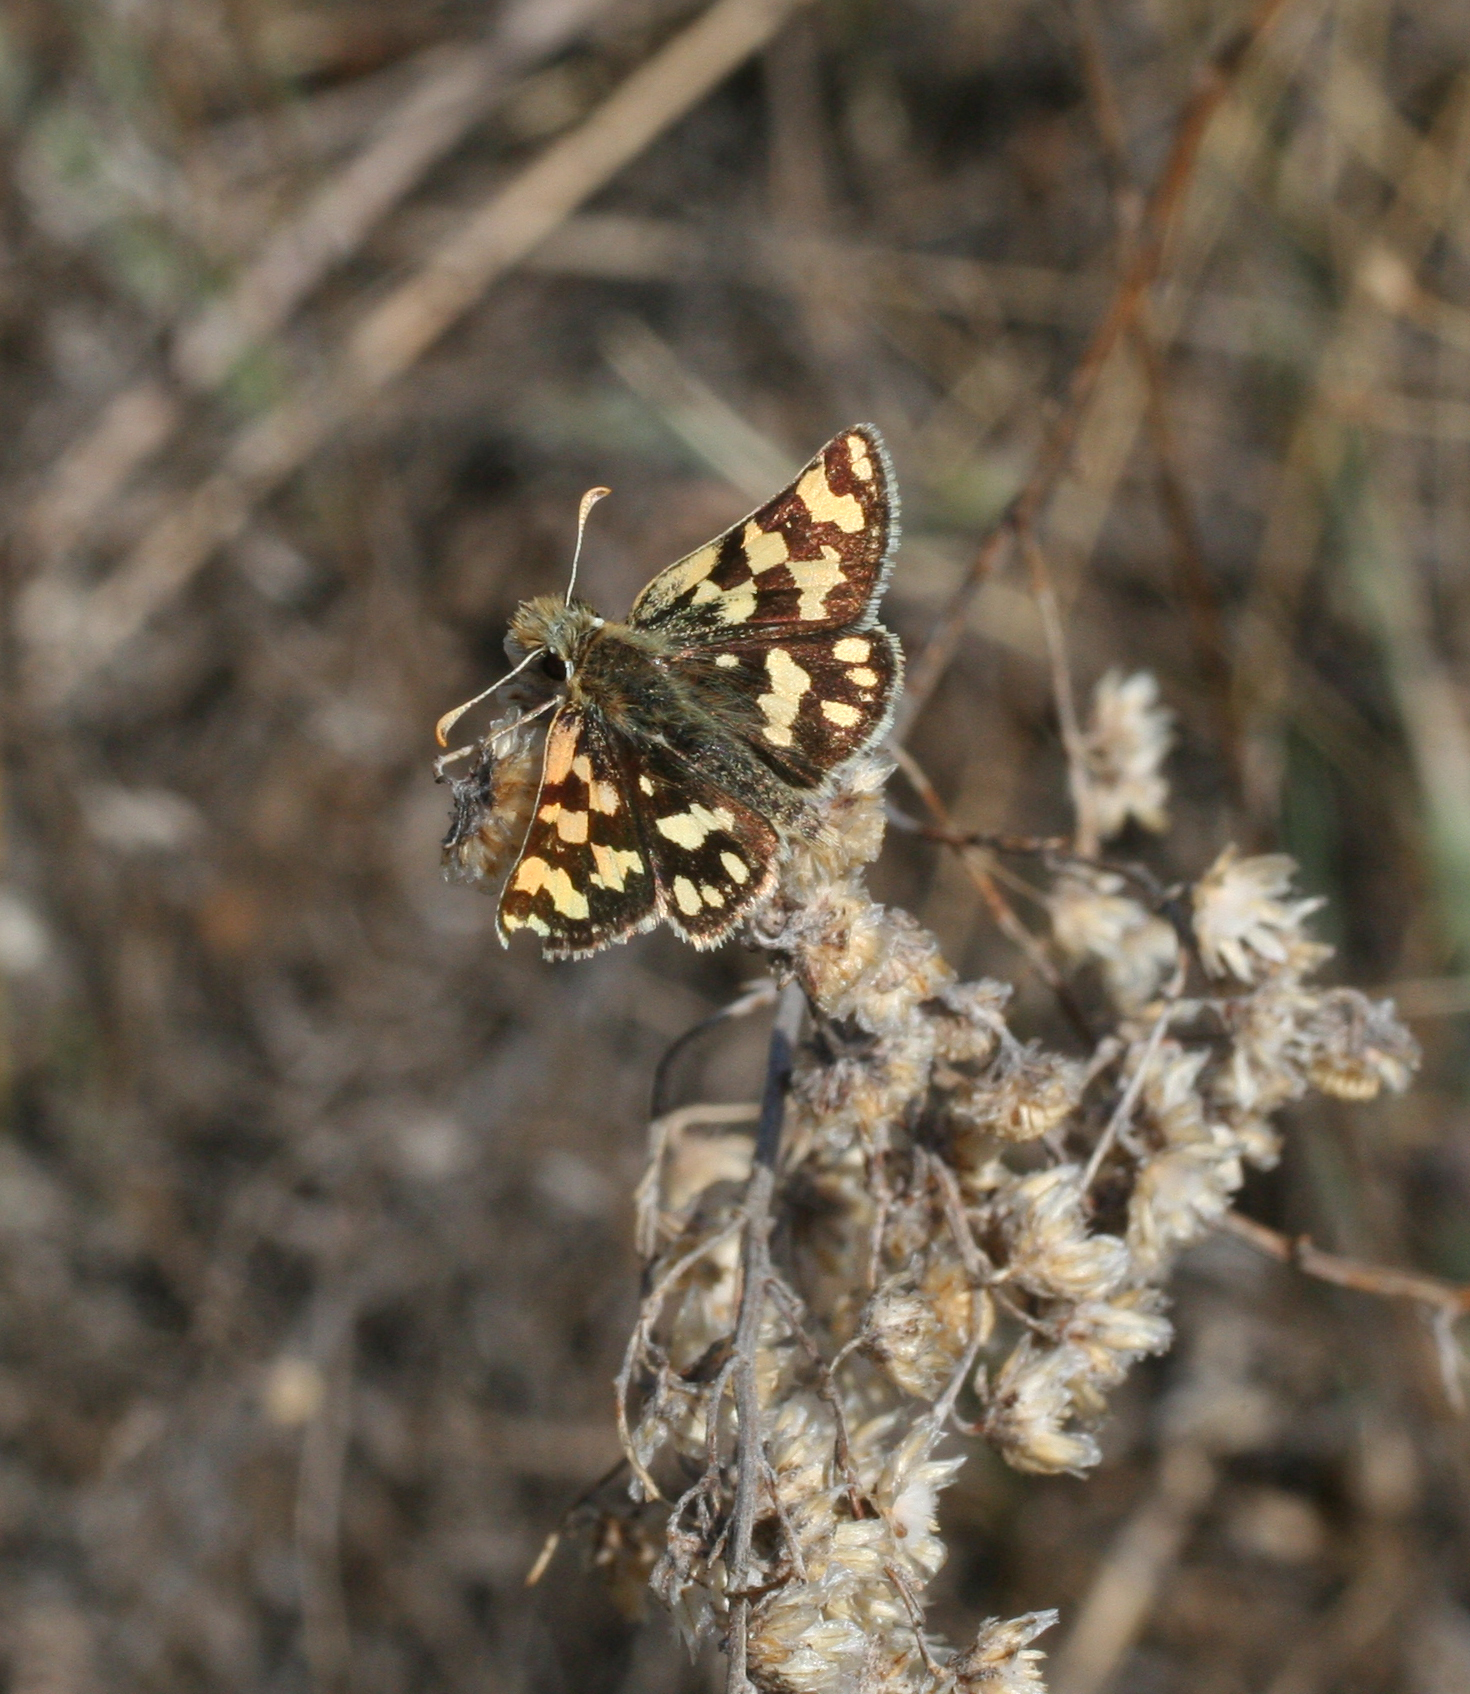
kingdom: Animalia
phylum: Arthropoda
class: Insecta
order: Lepidoptera
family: Hesperiidae
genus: Carterocephalus
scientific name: Carterocephalus argyrostigma
